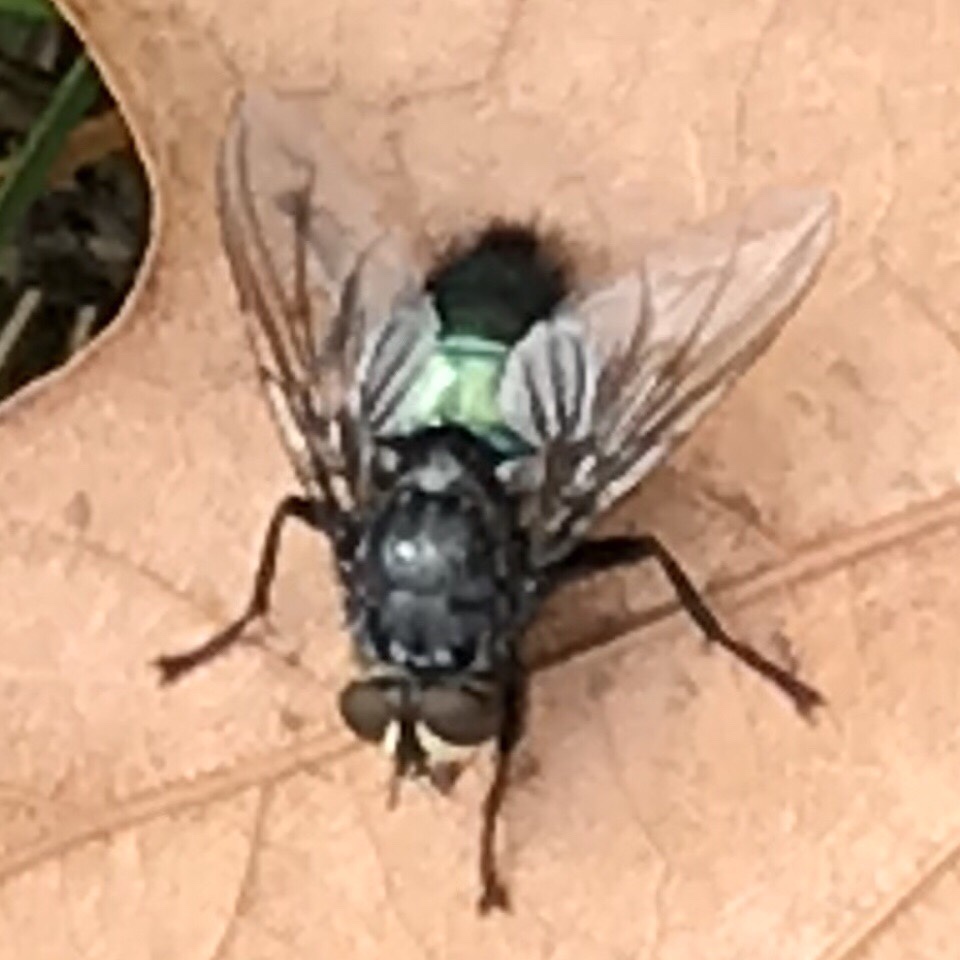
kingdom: Animalia
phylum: Arthropoda
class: Insecta
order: Diptera
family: Calliphoridae
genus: Cynomya
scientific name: Cynomya cadaverina
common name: Shiny blue bottle fly
